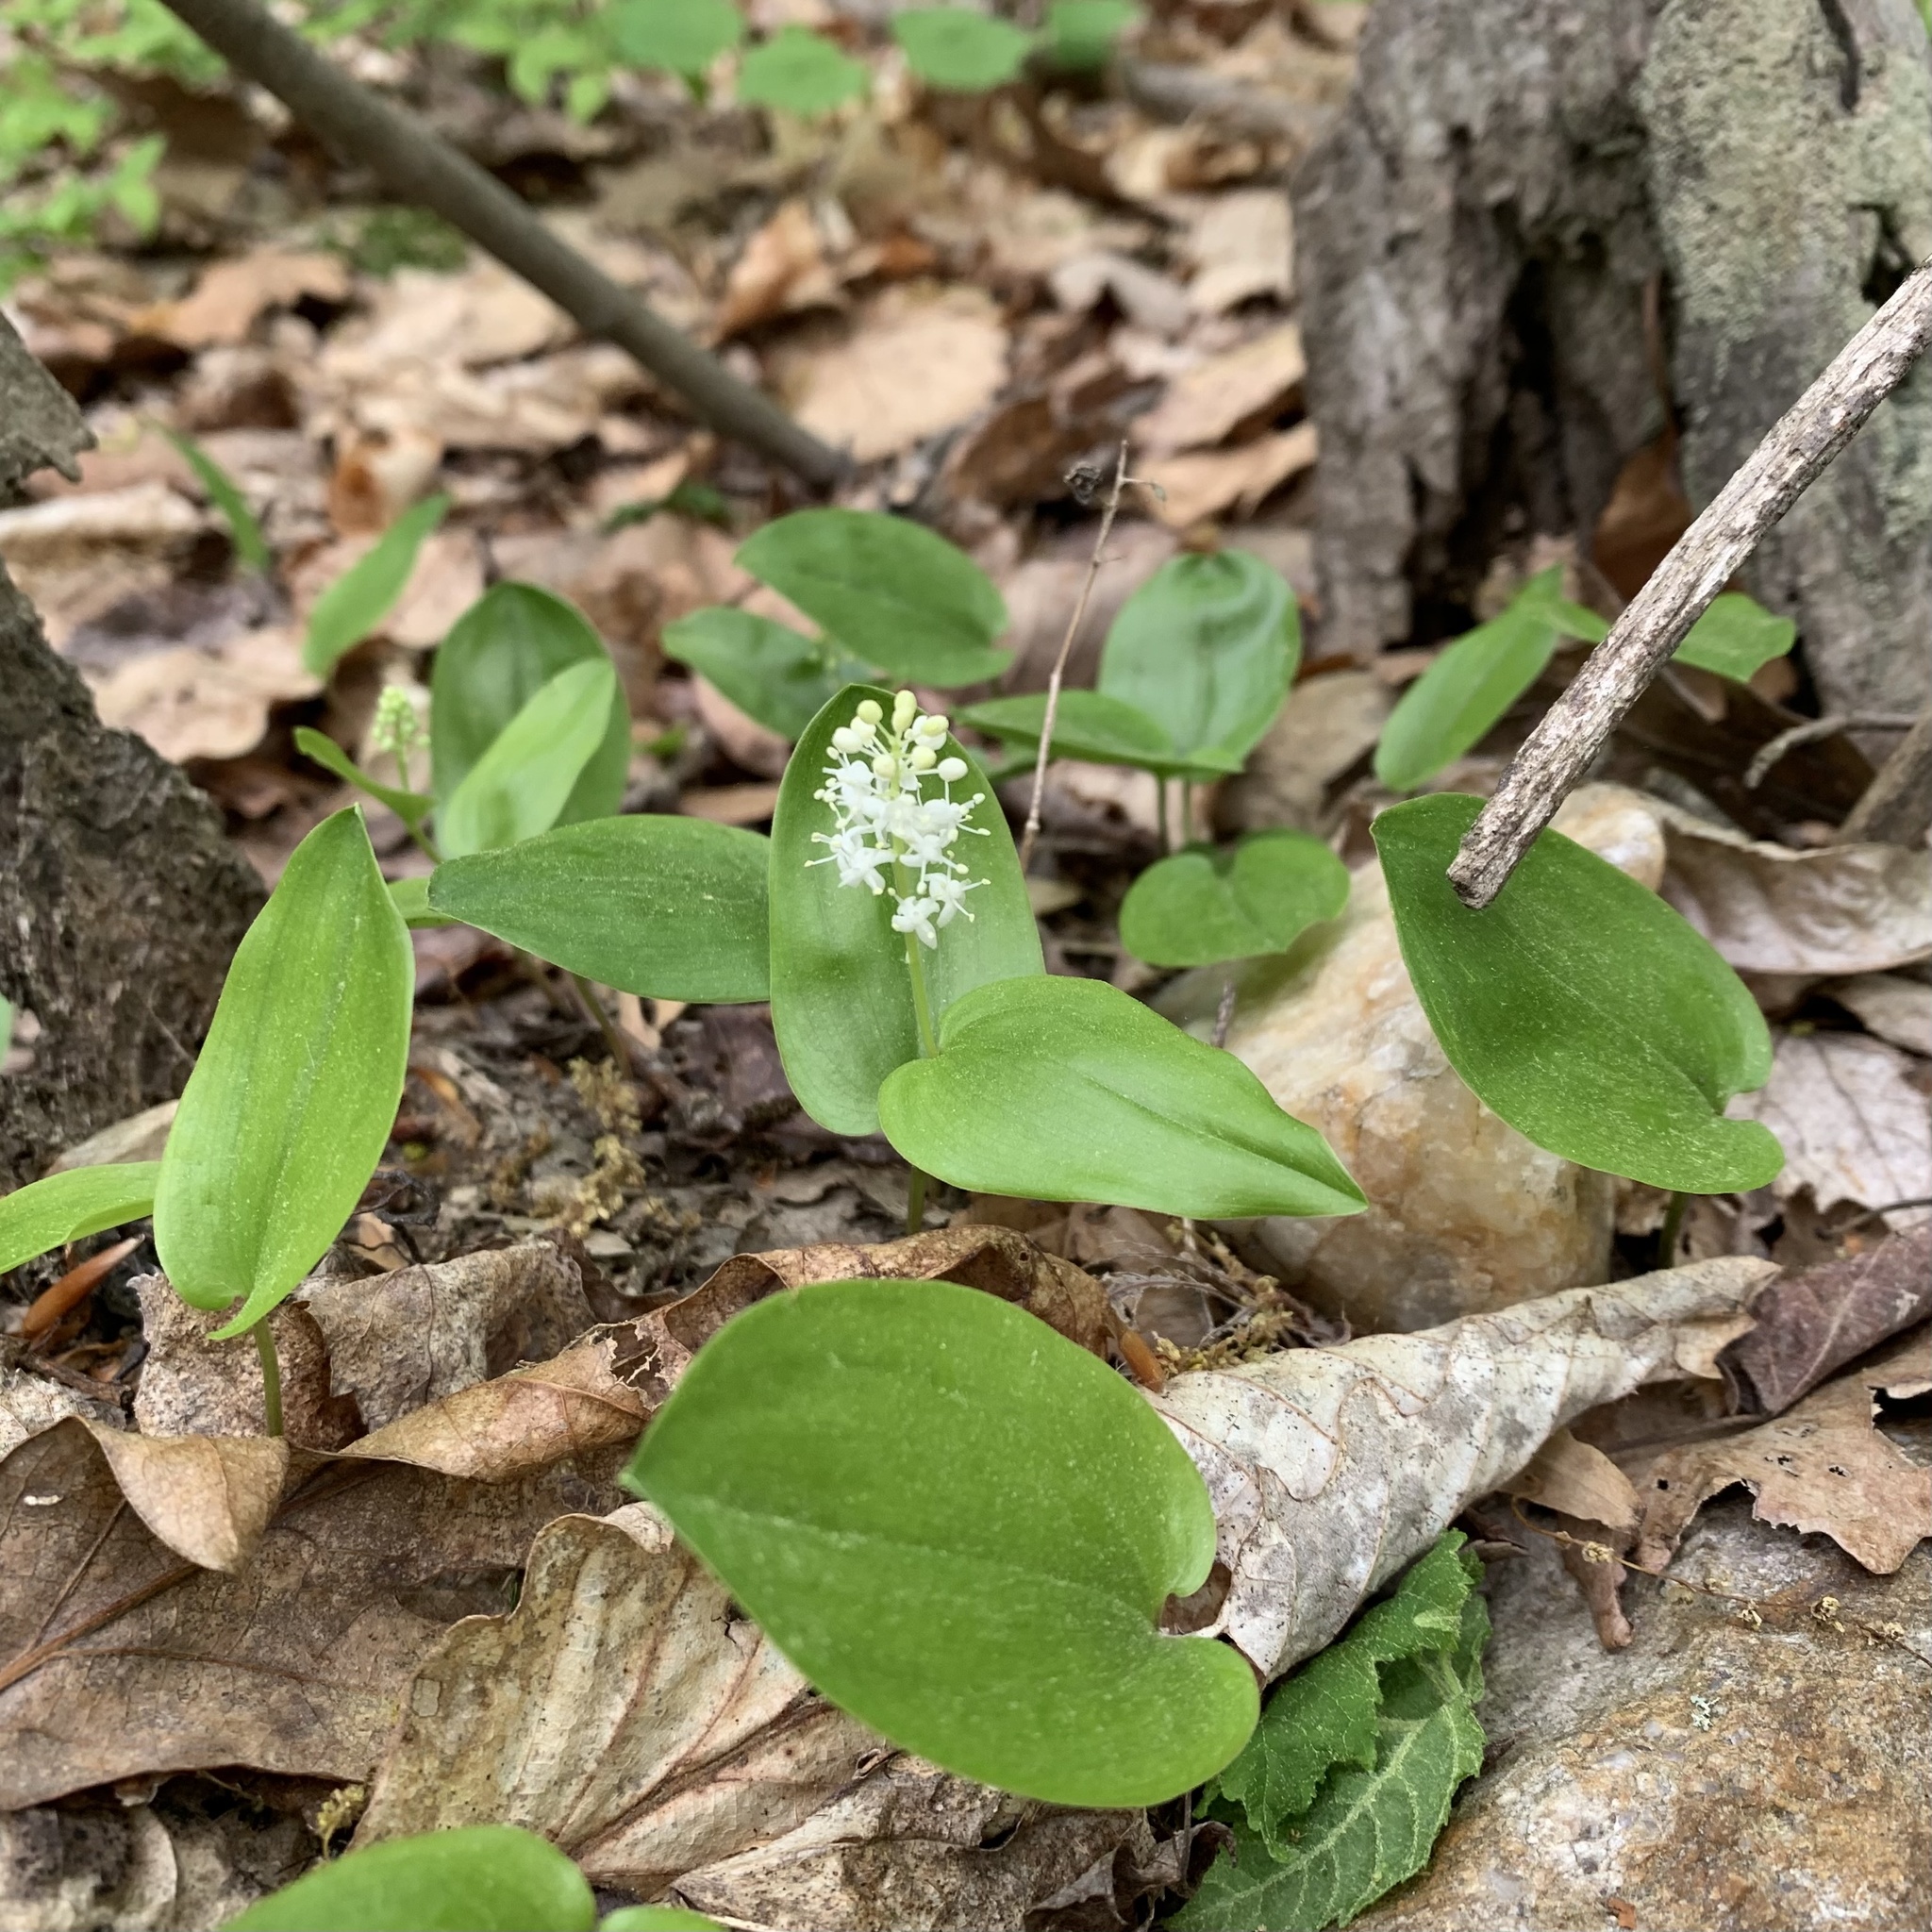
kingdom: Plantae
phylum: Tracheophyta
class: Liliopsida
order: Asparagales
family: Asparagaceae
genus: Maianthemum
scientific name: Maianthemum canadense
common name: False lily-of-the-valley
